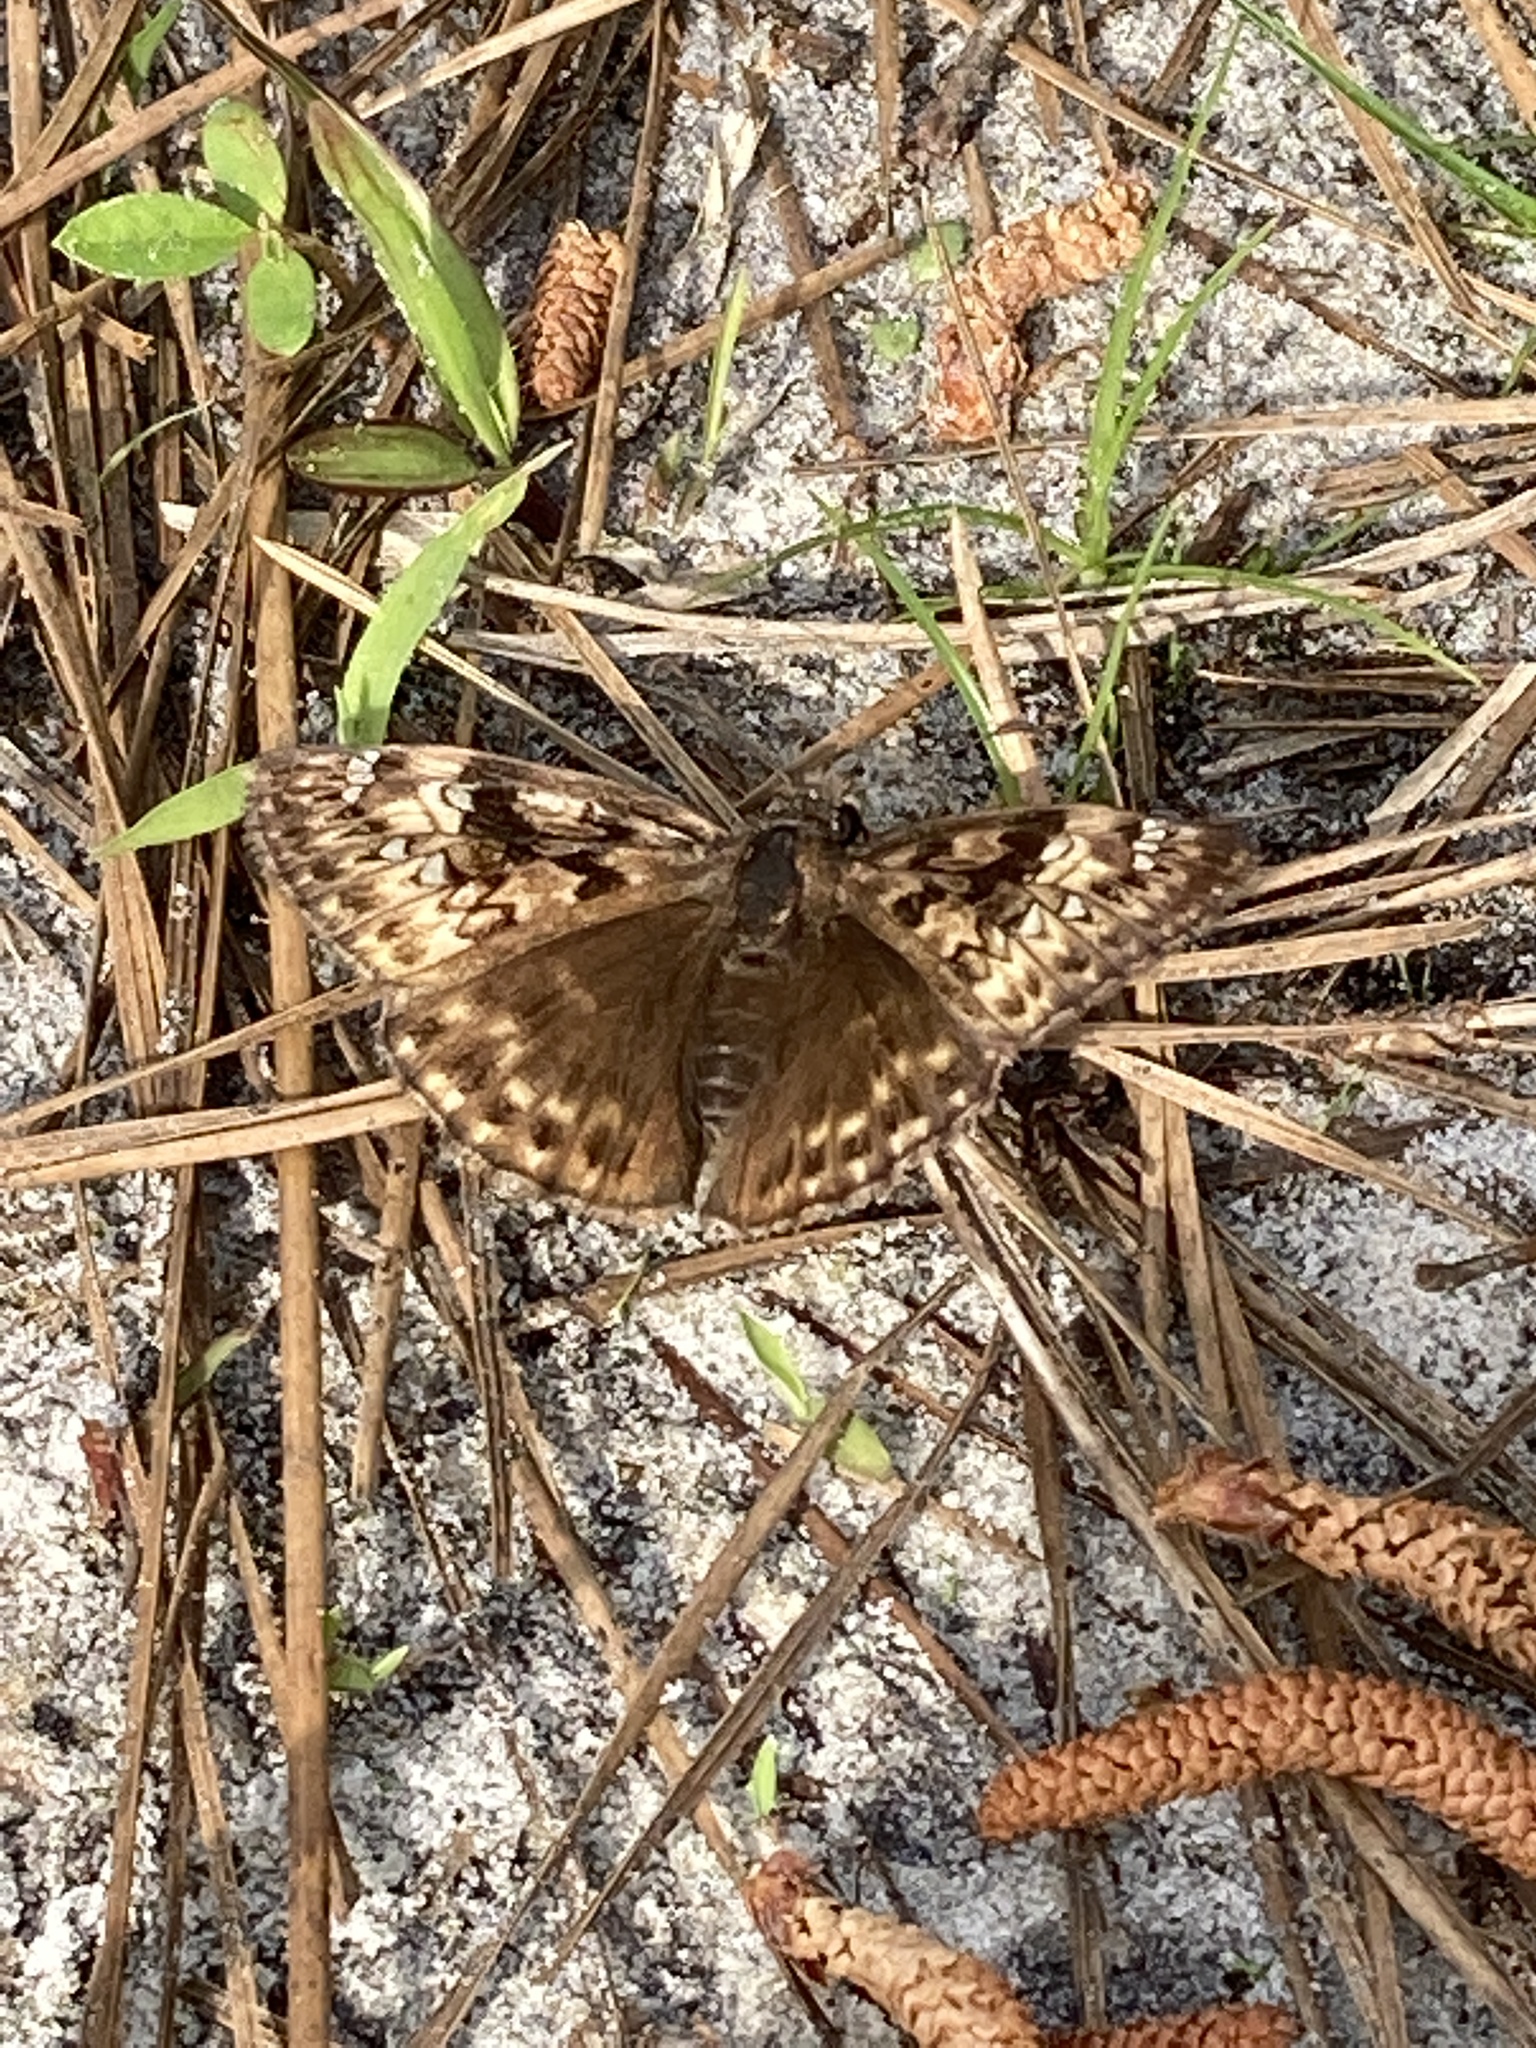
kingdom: Animalia
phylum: Arthropoda
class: Insecta
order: Lepidoptera
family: Hesperiidae
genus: Erynnis
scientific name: Erynnis juvenalis
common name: Juvenal's duskywing
